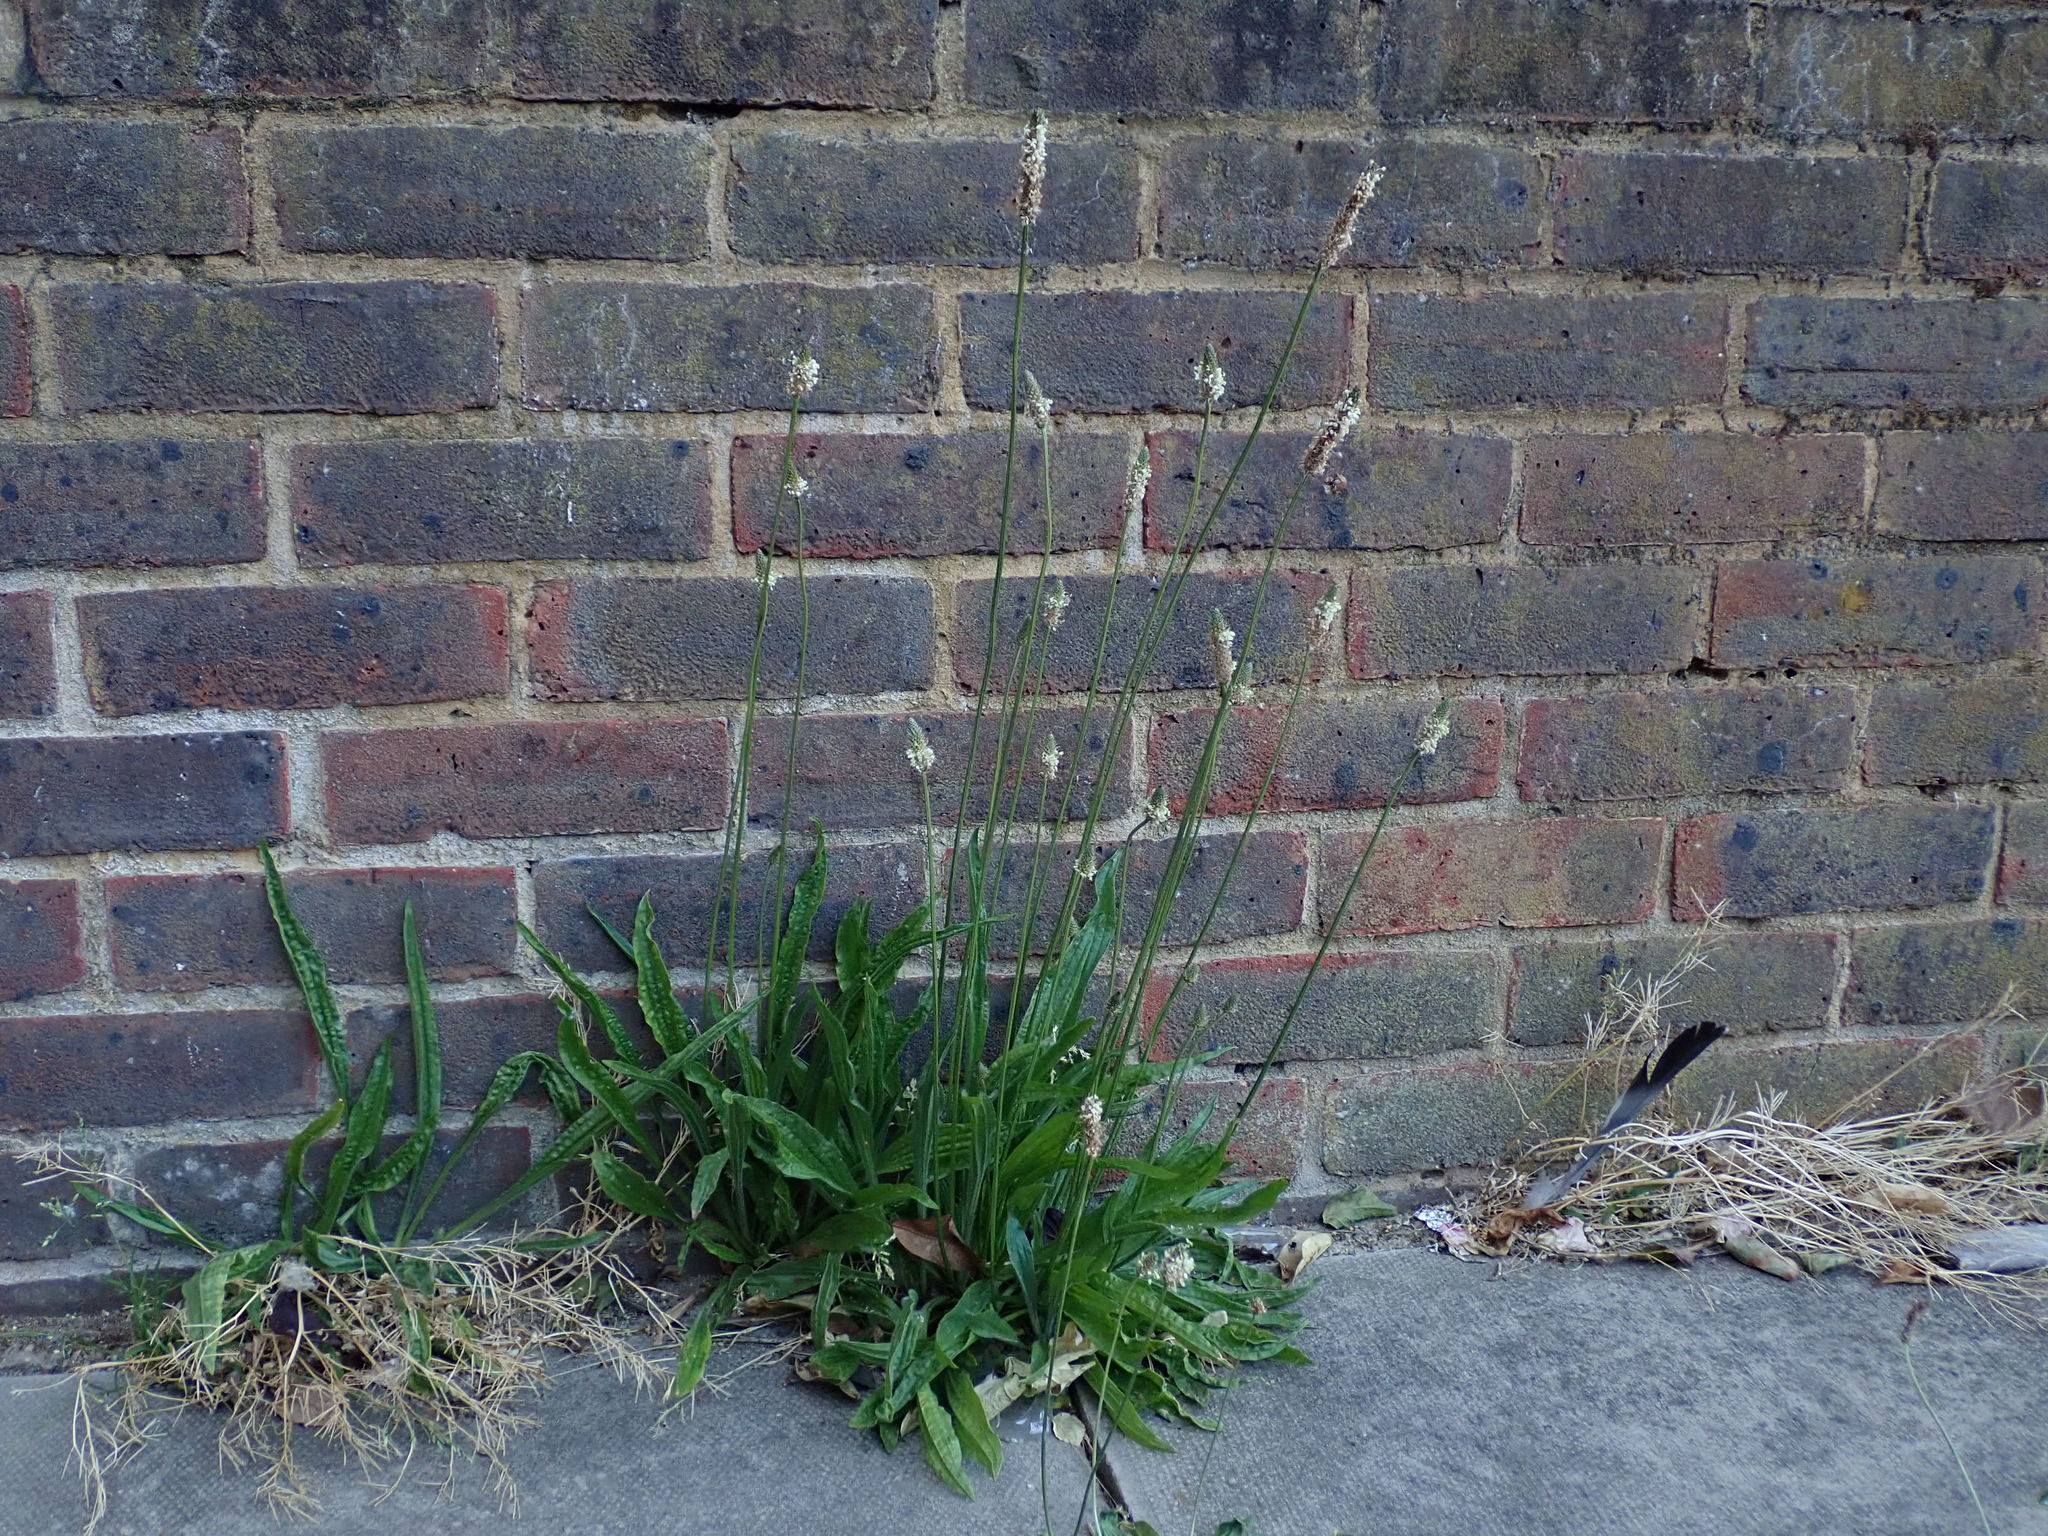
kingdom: Plantae
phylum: Tracheophyta
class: Magnoliopsida
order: Lamiales
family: Plantaginaceae
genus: Plantago
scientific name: Plantago lanceolata
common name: Ribwort plantain
